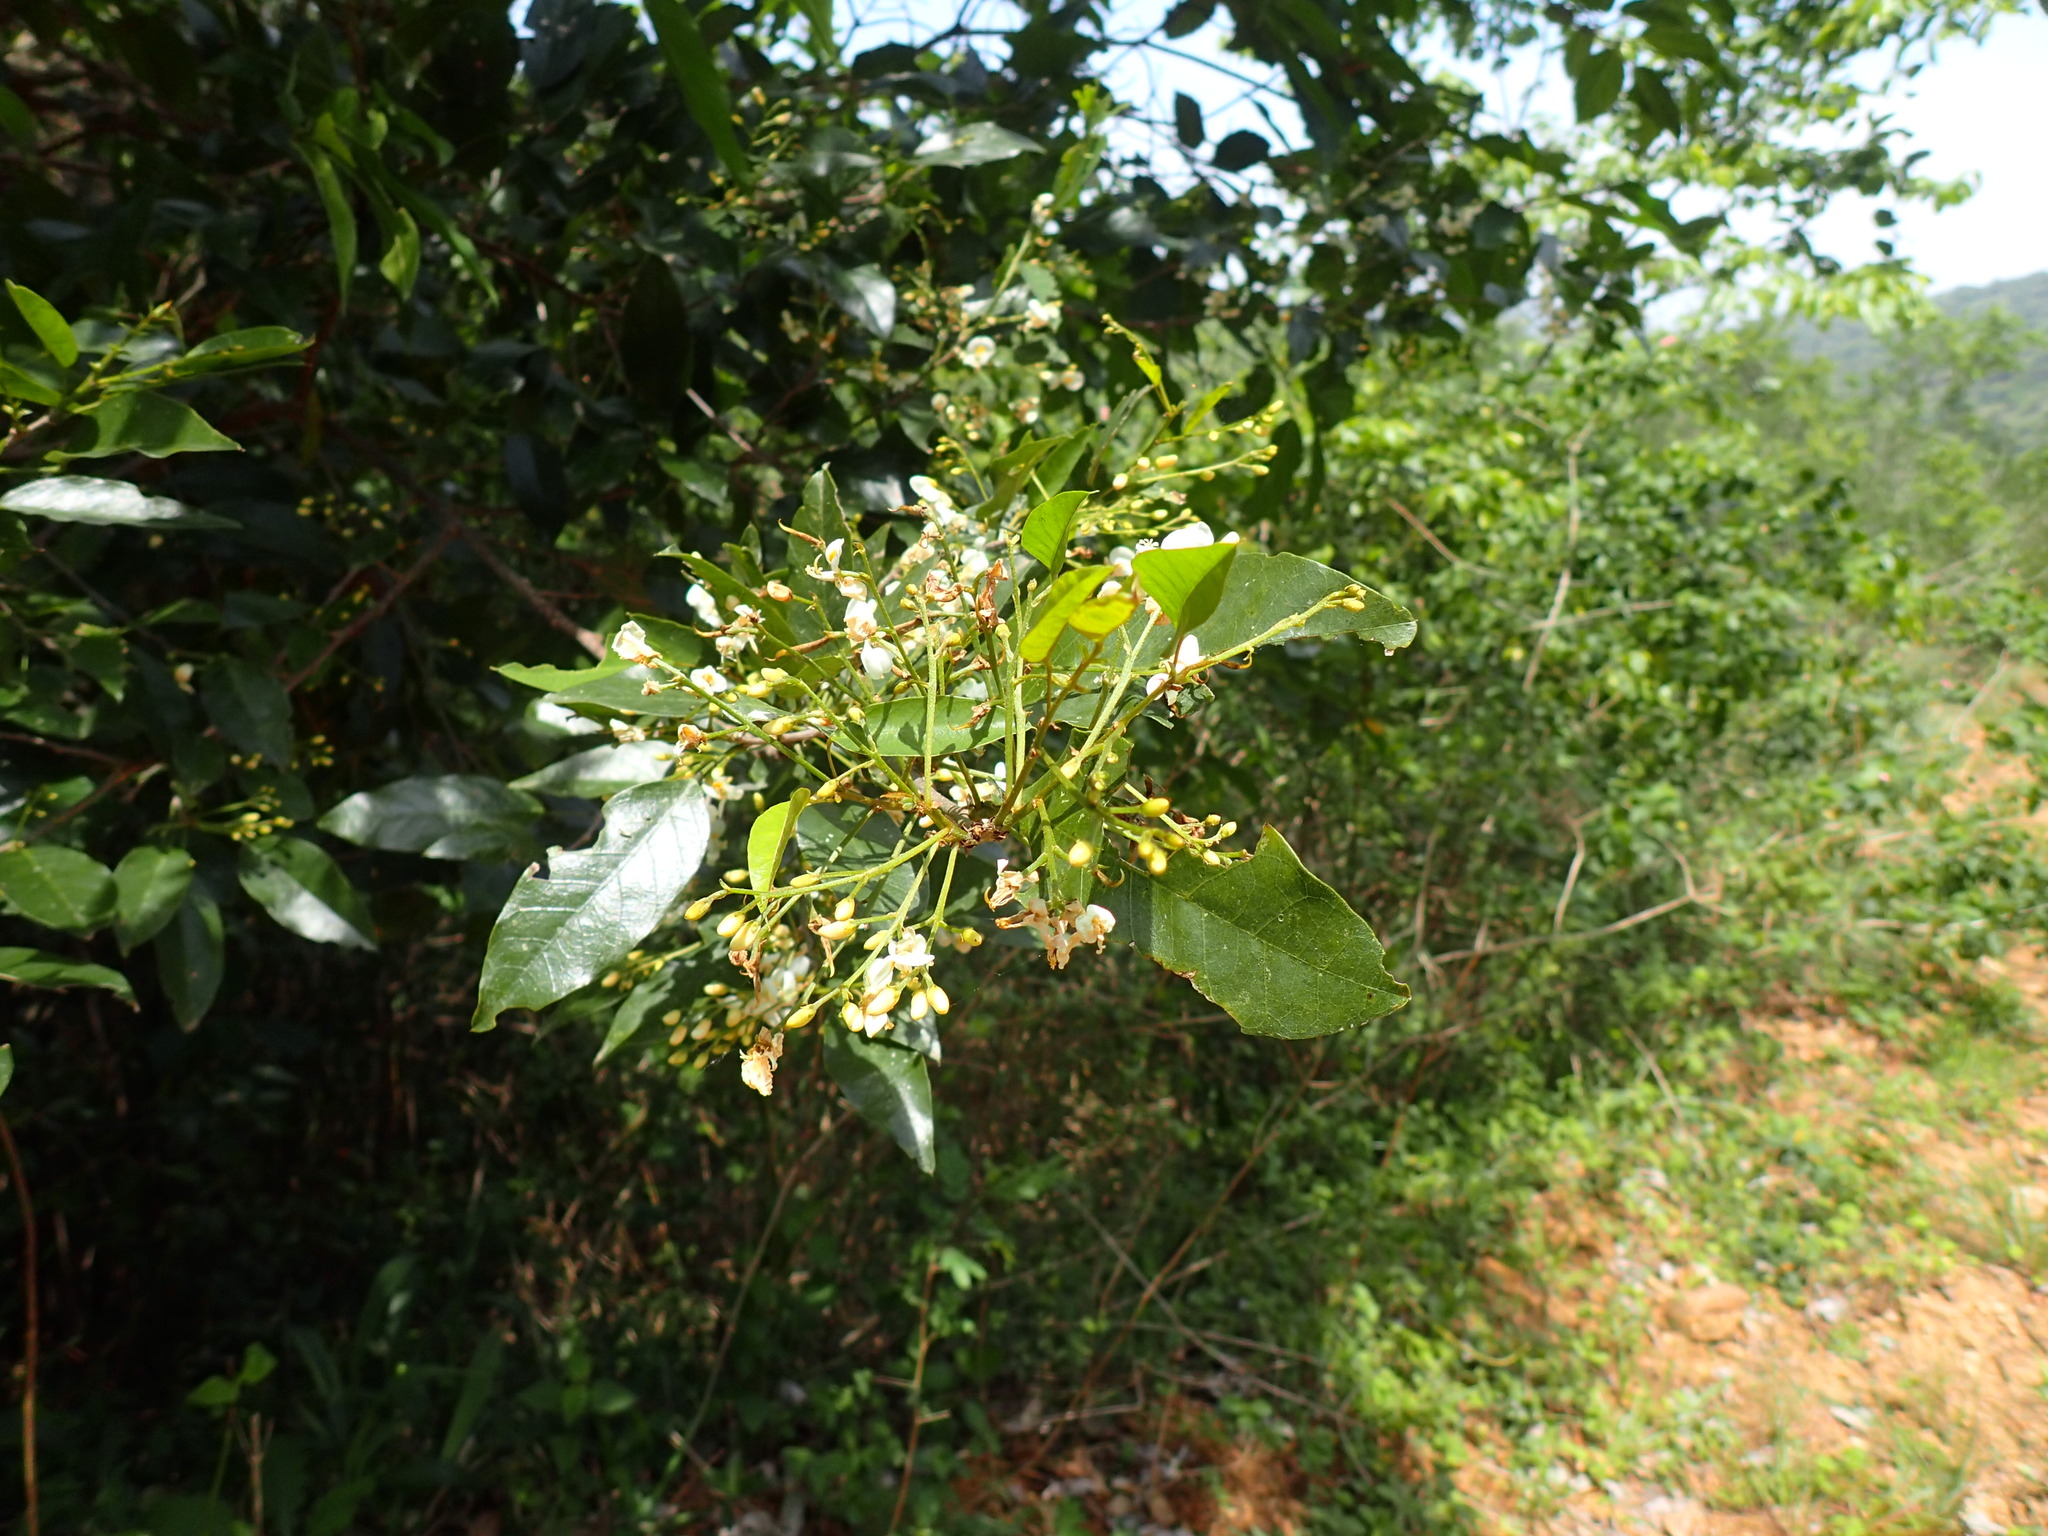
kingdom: Plantae
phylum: Tracheophyta
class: Magnoliopsida
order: Fabales
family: Fabaceae
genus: Bracteolaria
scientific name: Bracteolaria racemosa
